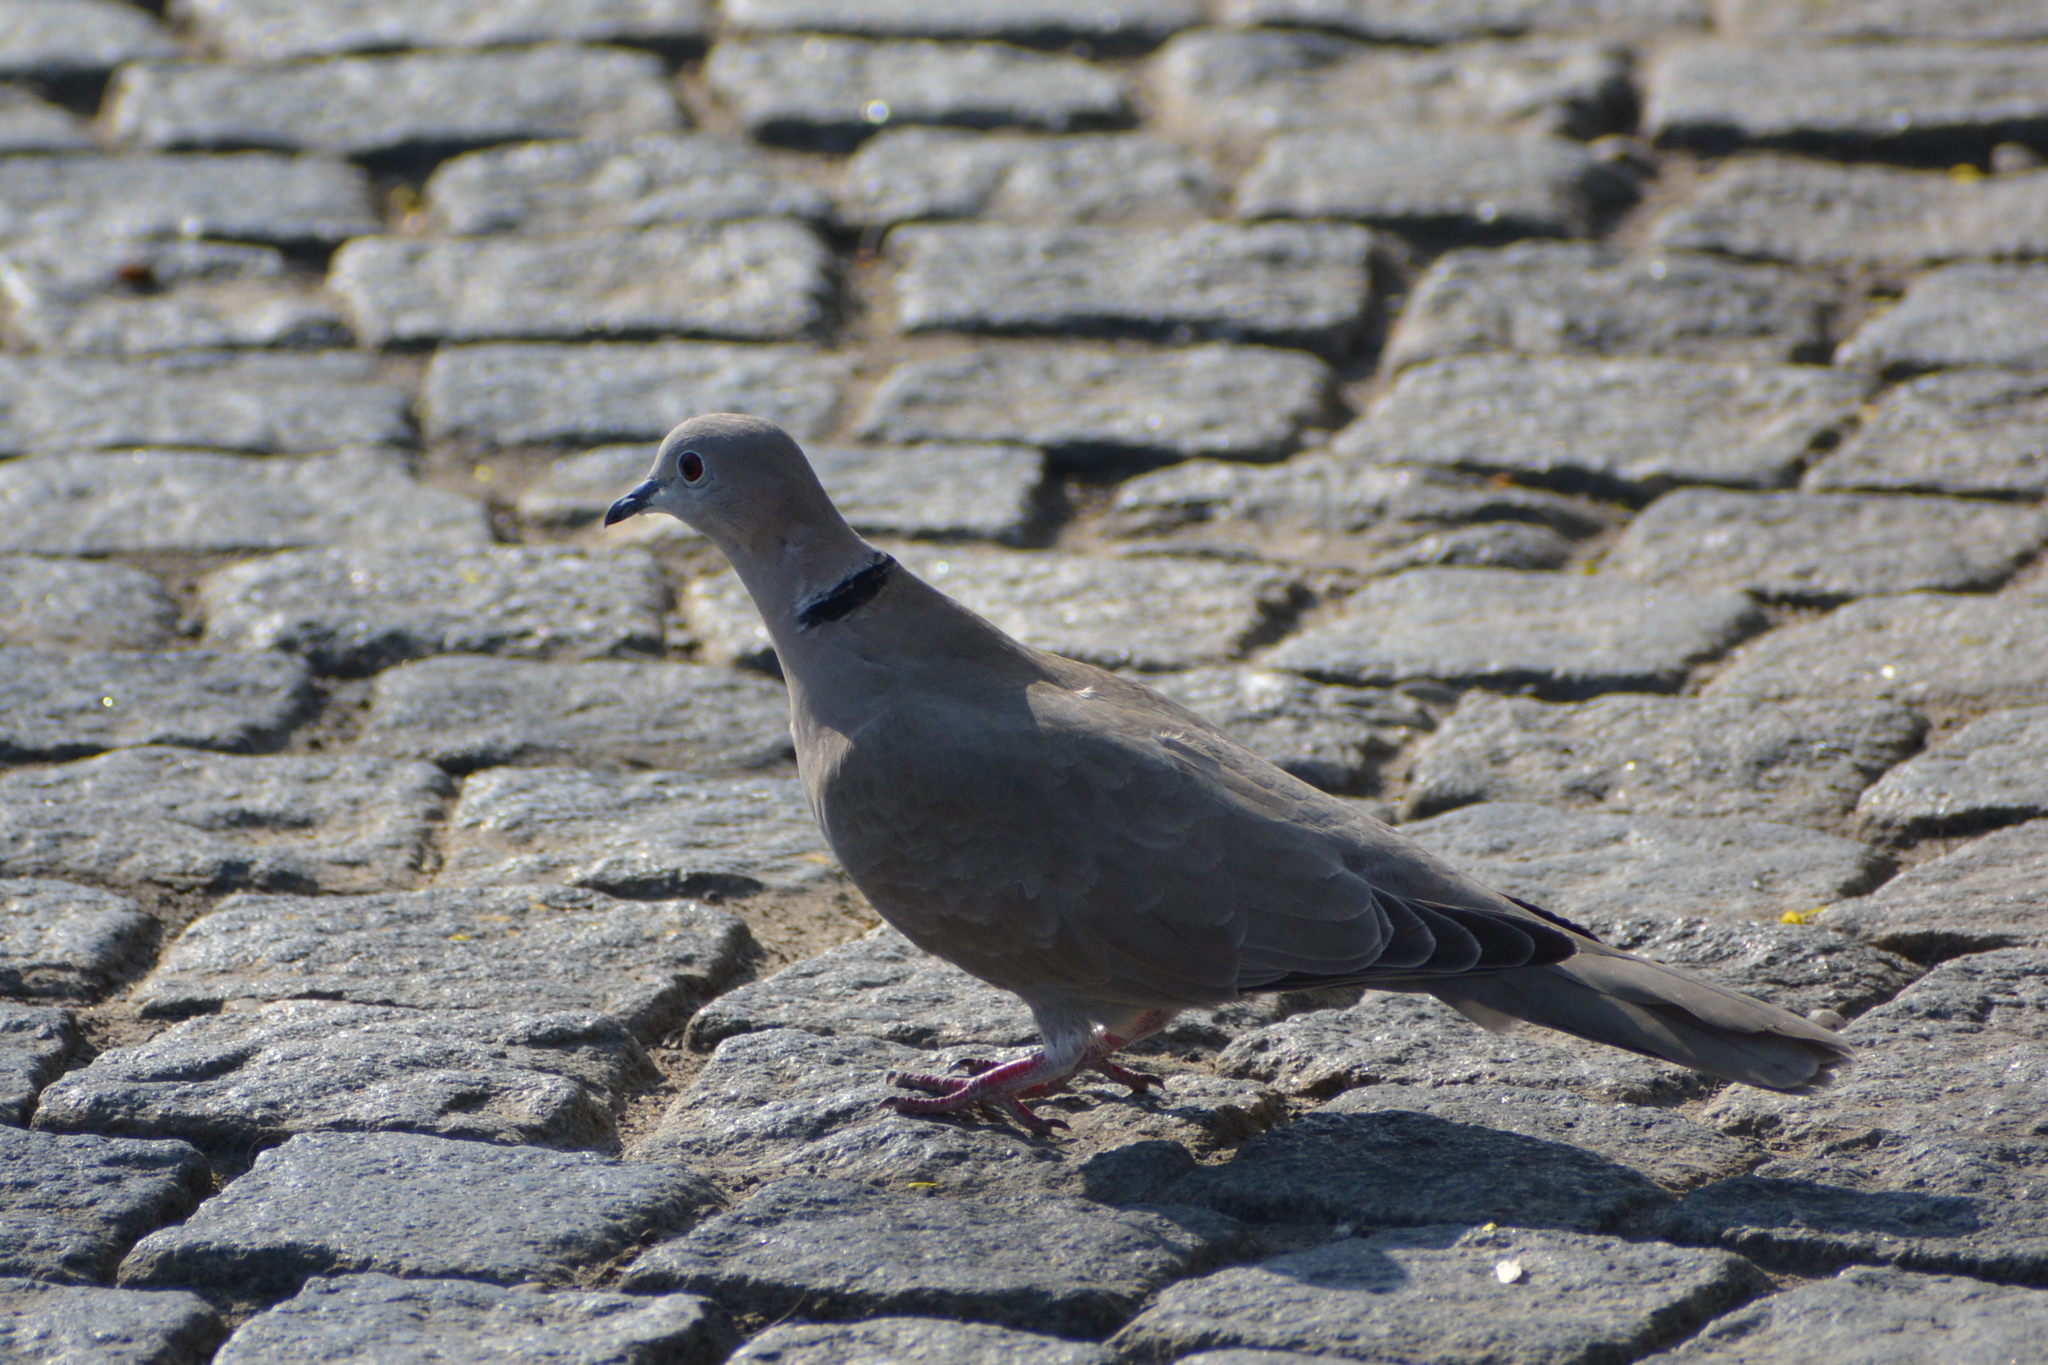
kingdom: Animalia
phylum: Chordata
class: Aves
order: Columbiformes
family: Columbidae
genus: Streptopelia
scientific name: Streptopelia decaocto
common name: Eurasian collared dove
